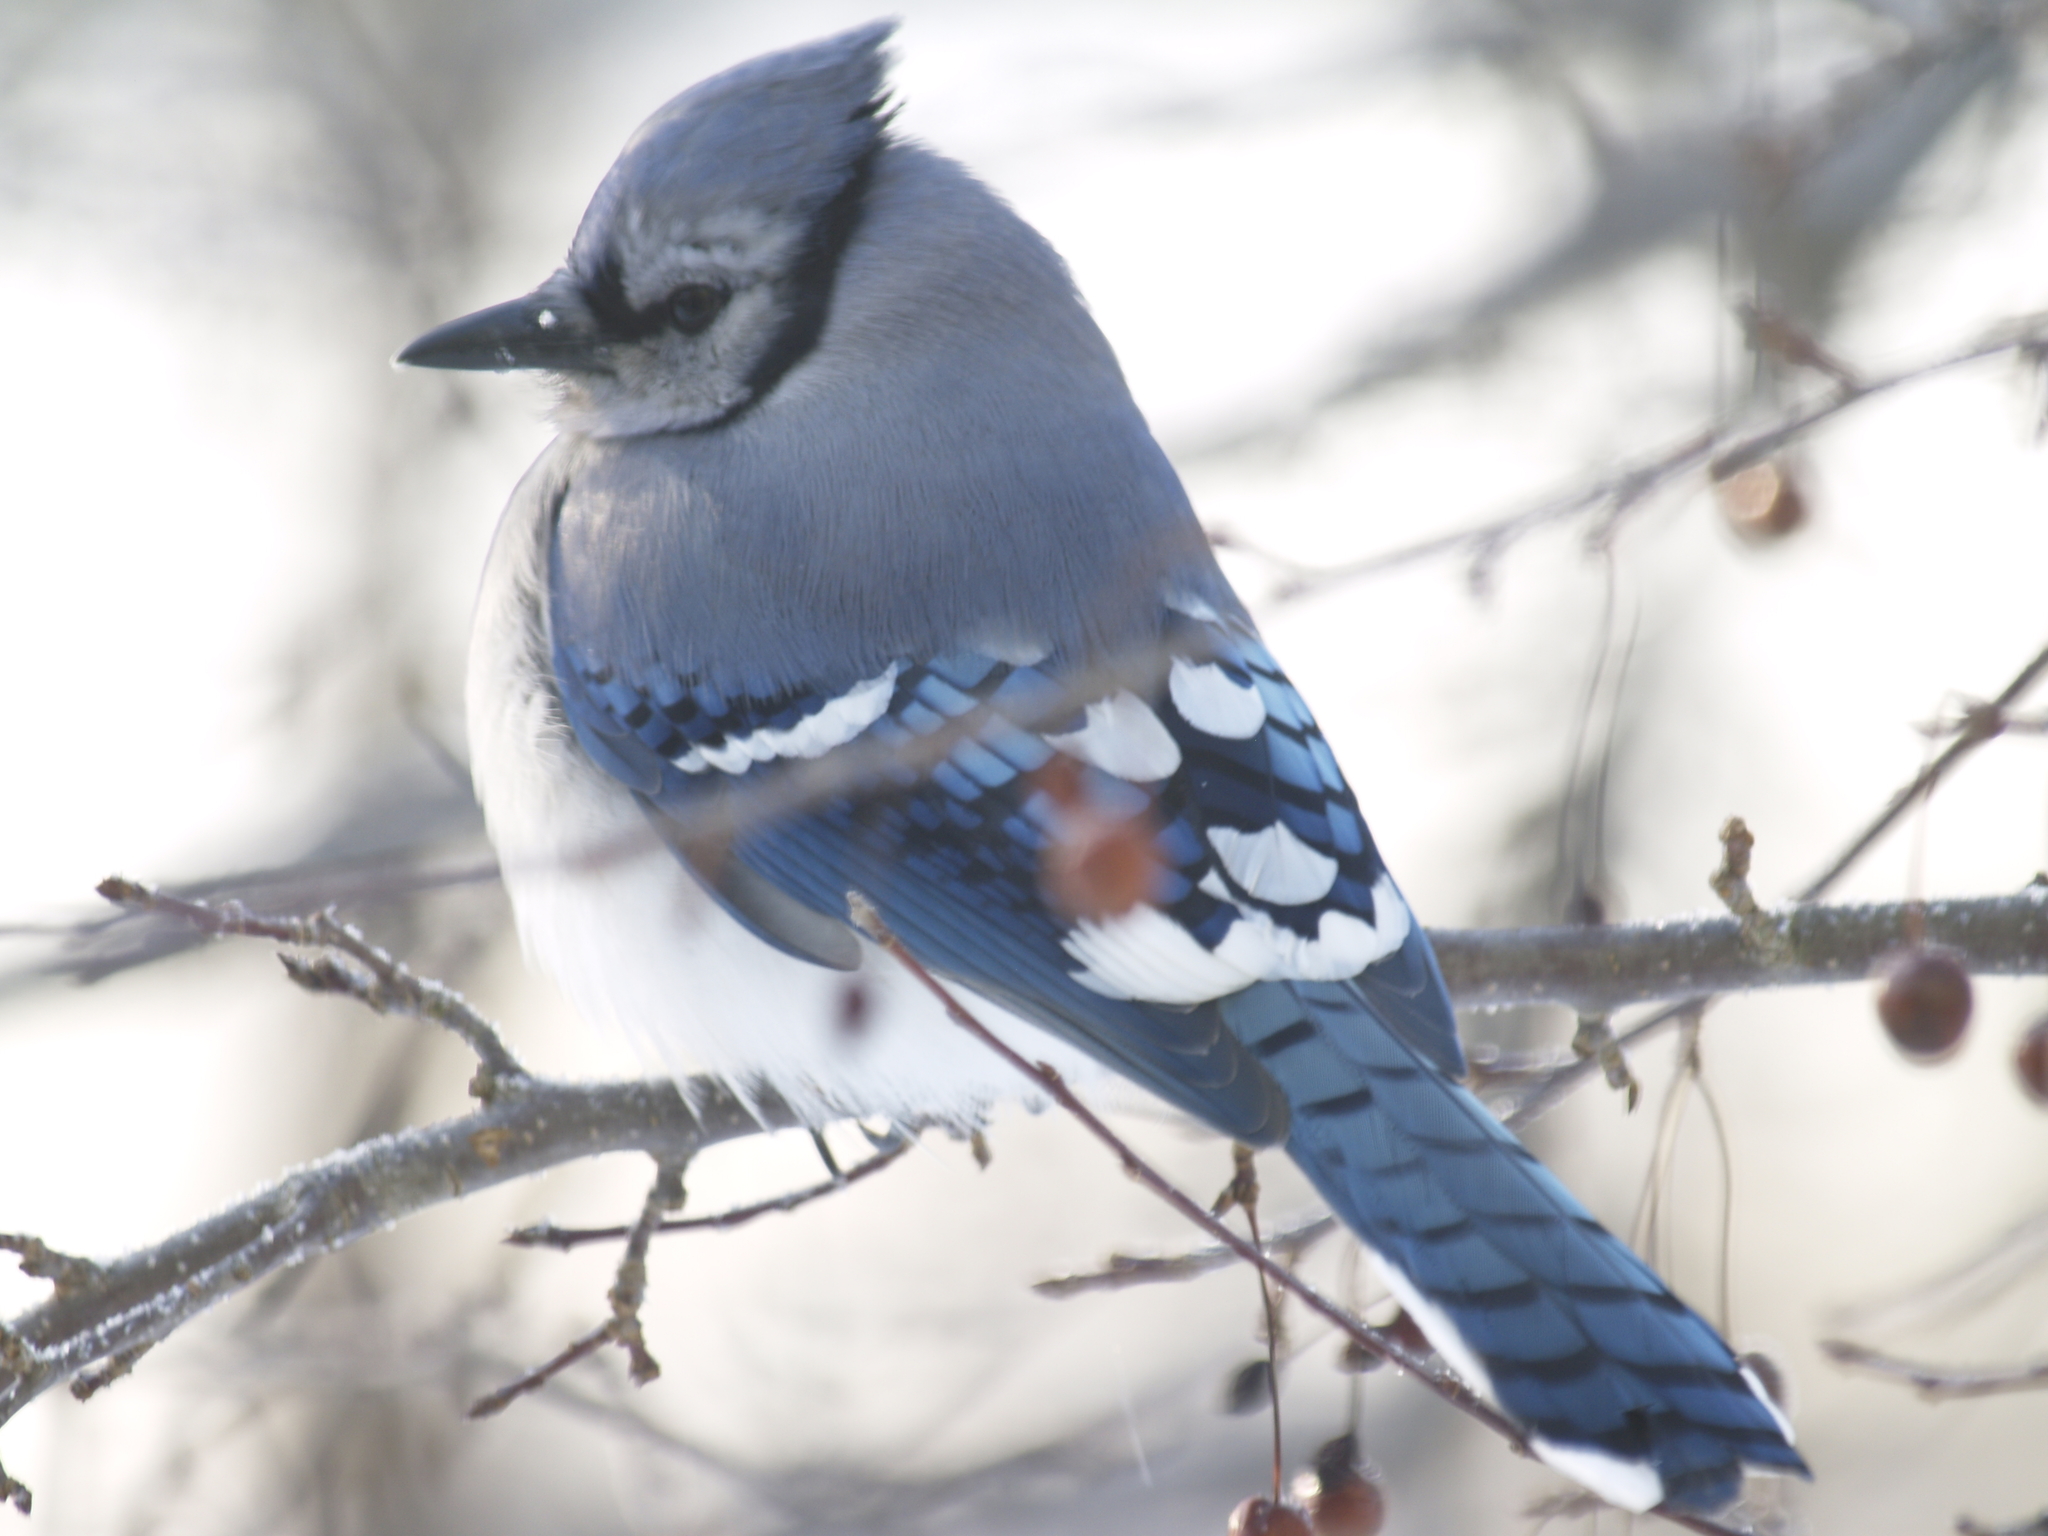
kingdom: Animalia
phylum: Chordata
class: Aves
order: Passeriformes
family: Corvidae
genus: Cyanocitta
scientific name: Cyanocitta cristata
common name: Blue jay
